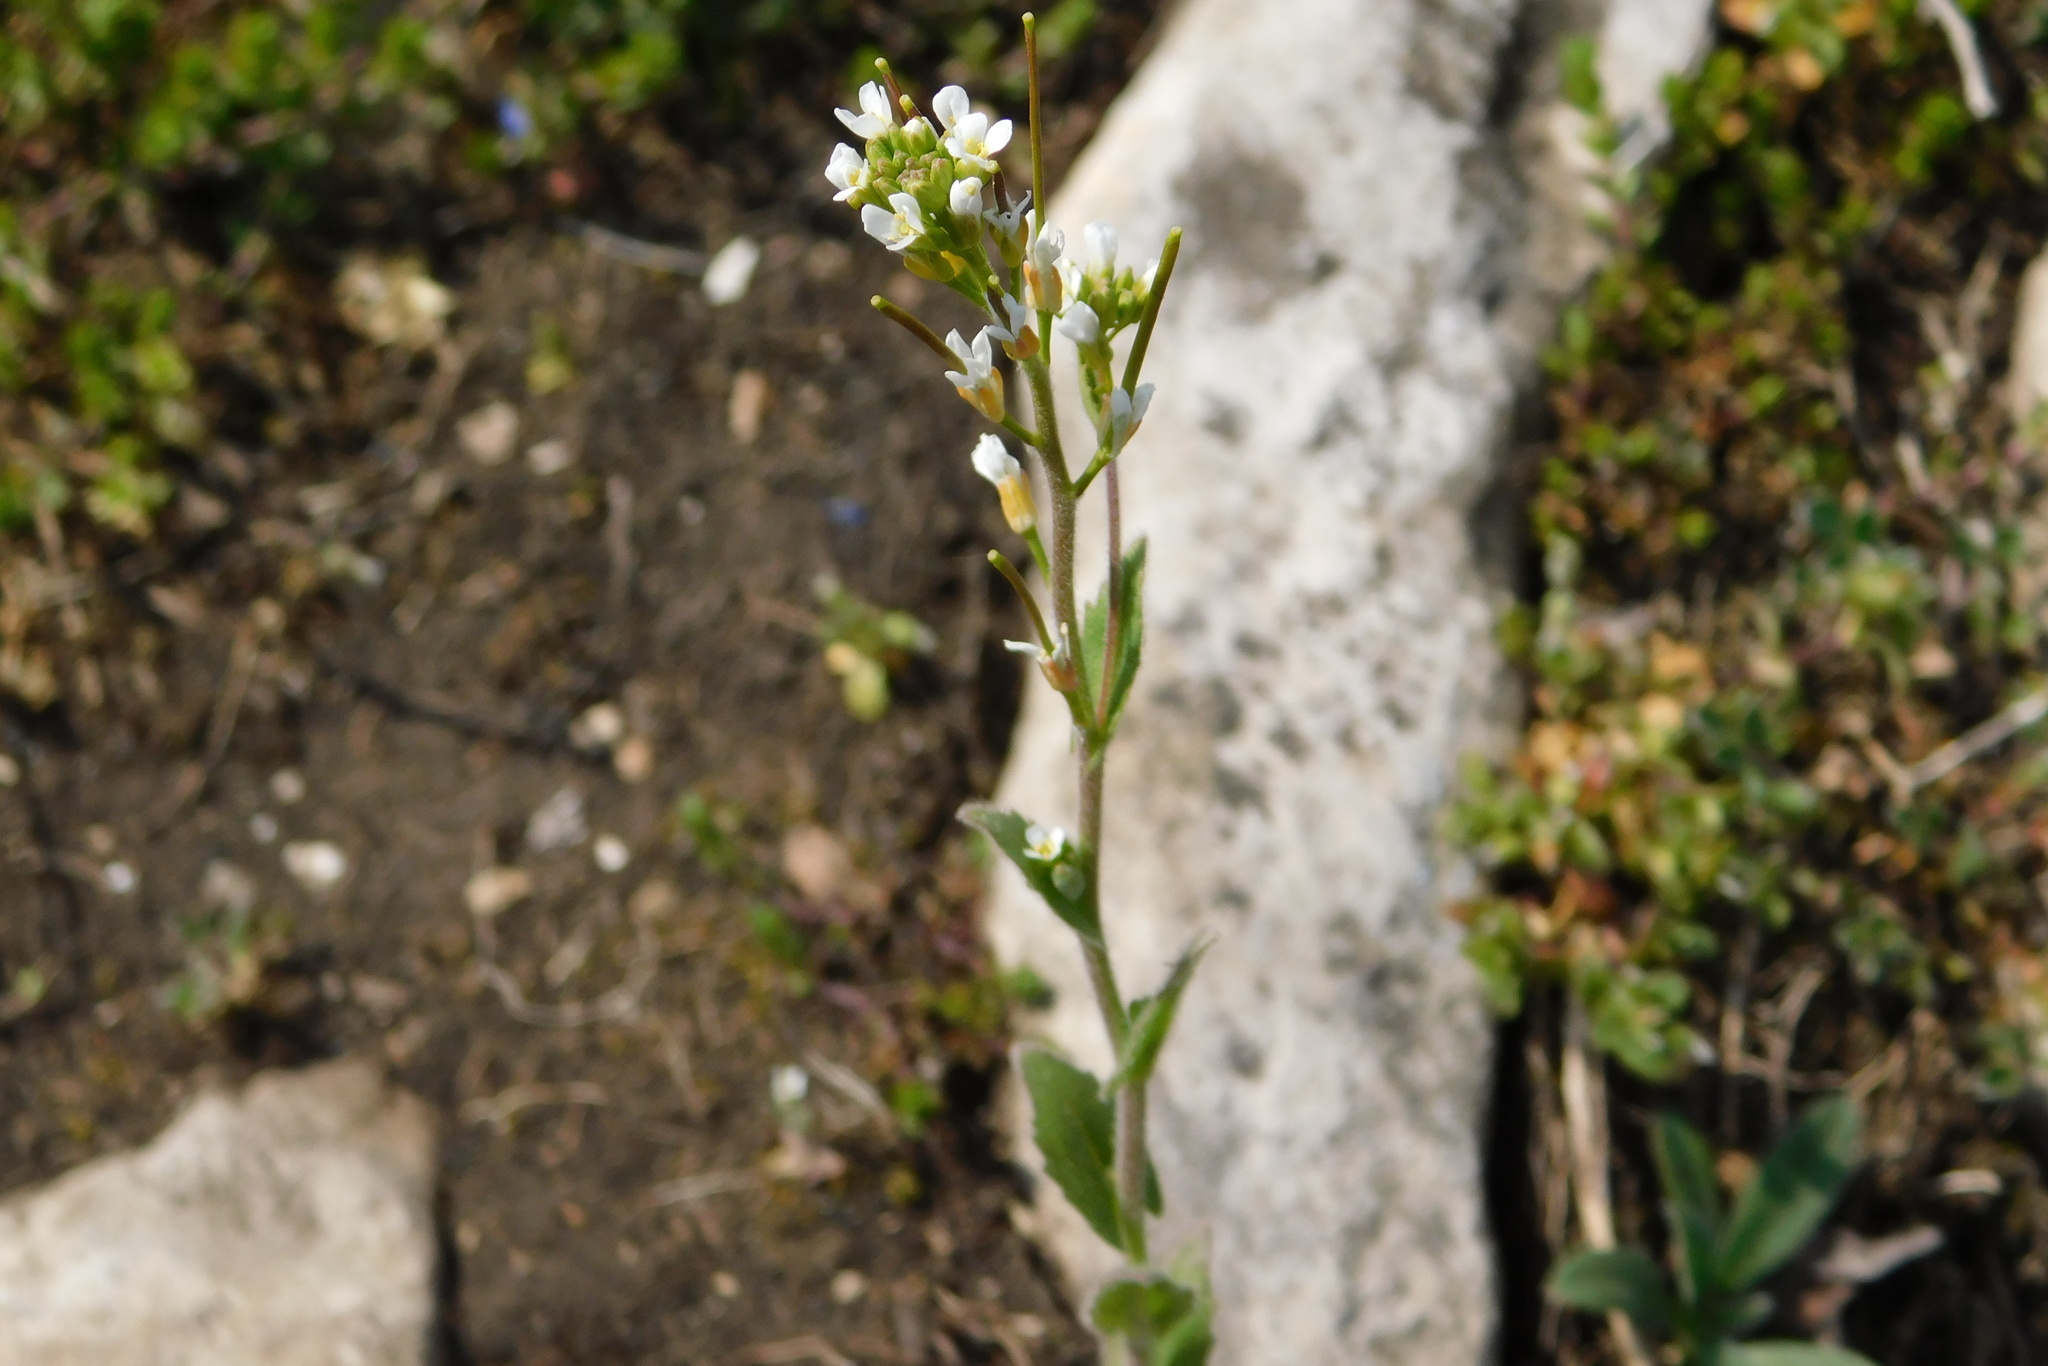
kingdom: Plantae
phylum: Tracheophyta
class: Magnoliopsida
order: Brassicales
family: Brassicaceae
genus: Arabis
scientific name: Arabis hirsuta
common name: Hairy rock-cress
